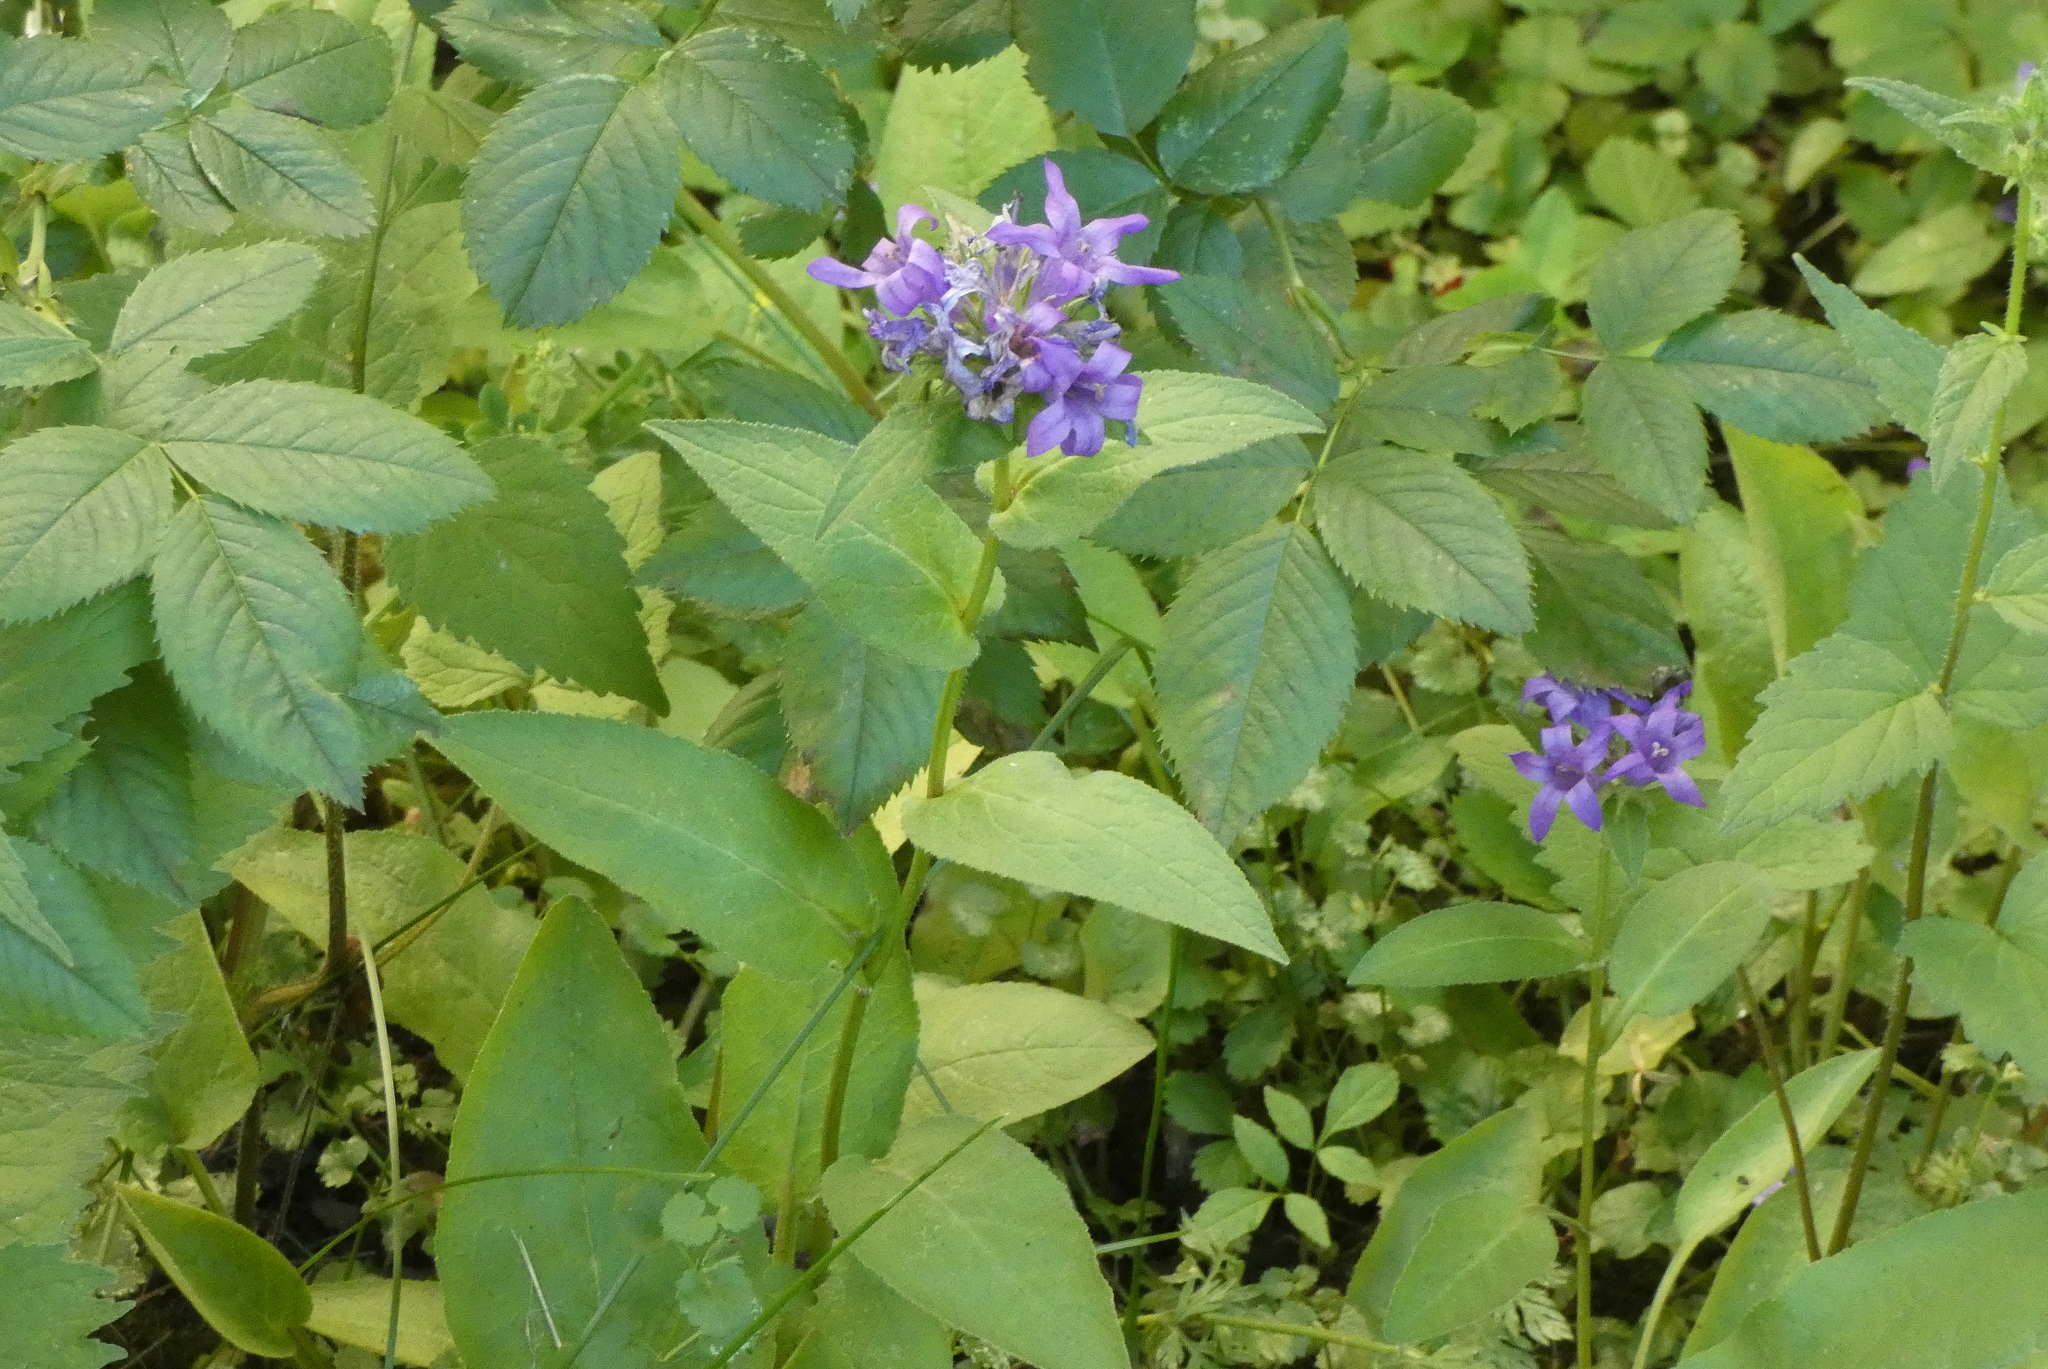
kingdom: Plantae
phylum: Tracheophyta
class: Magnoliopsida
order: Asterales
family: Campanulaceae
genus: Campanula
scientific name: Campanula glomerata
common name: Clustered bellflower
